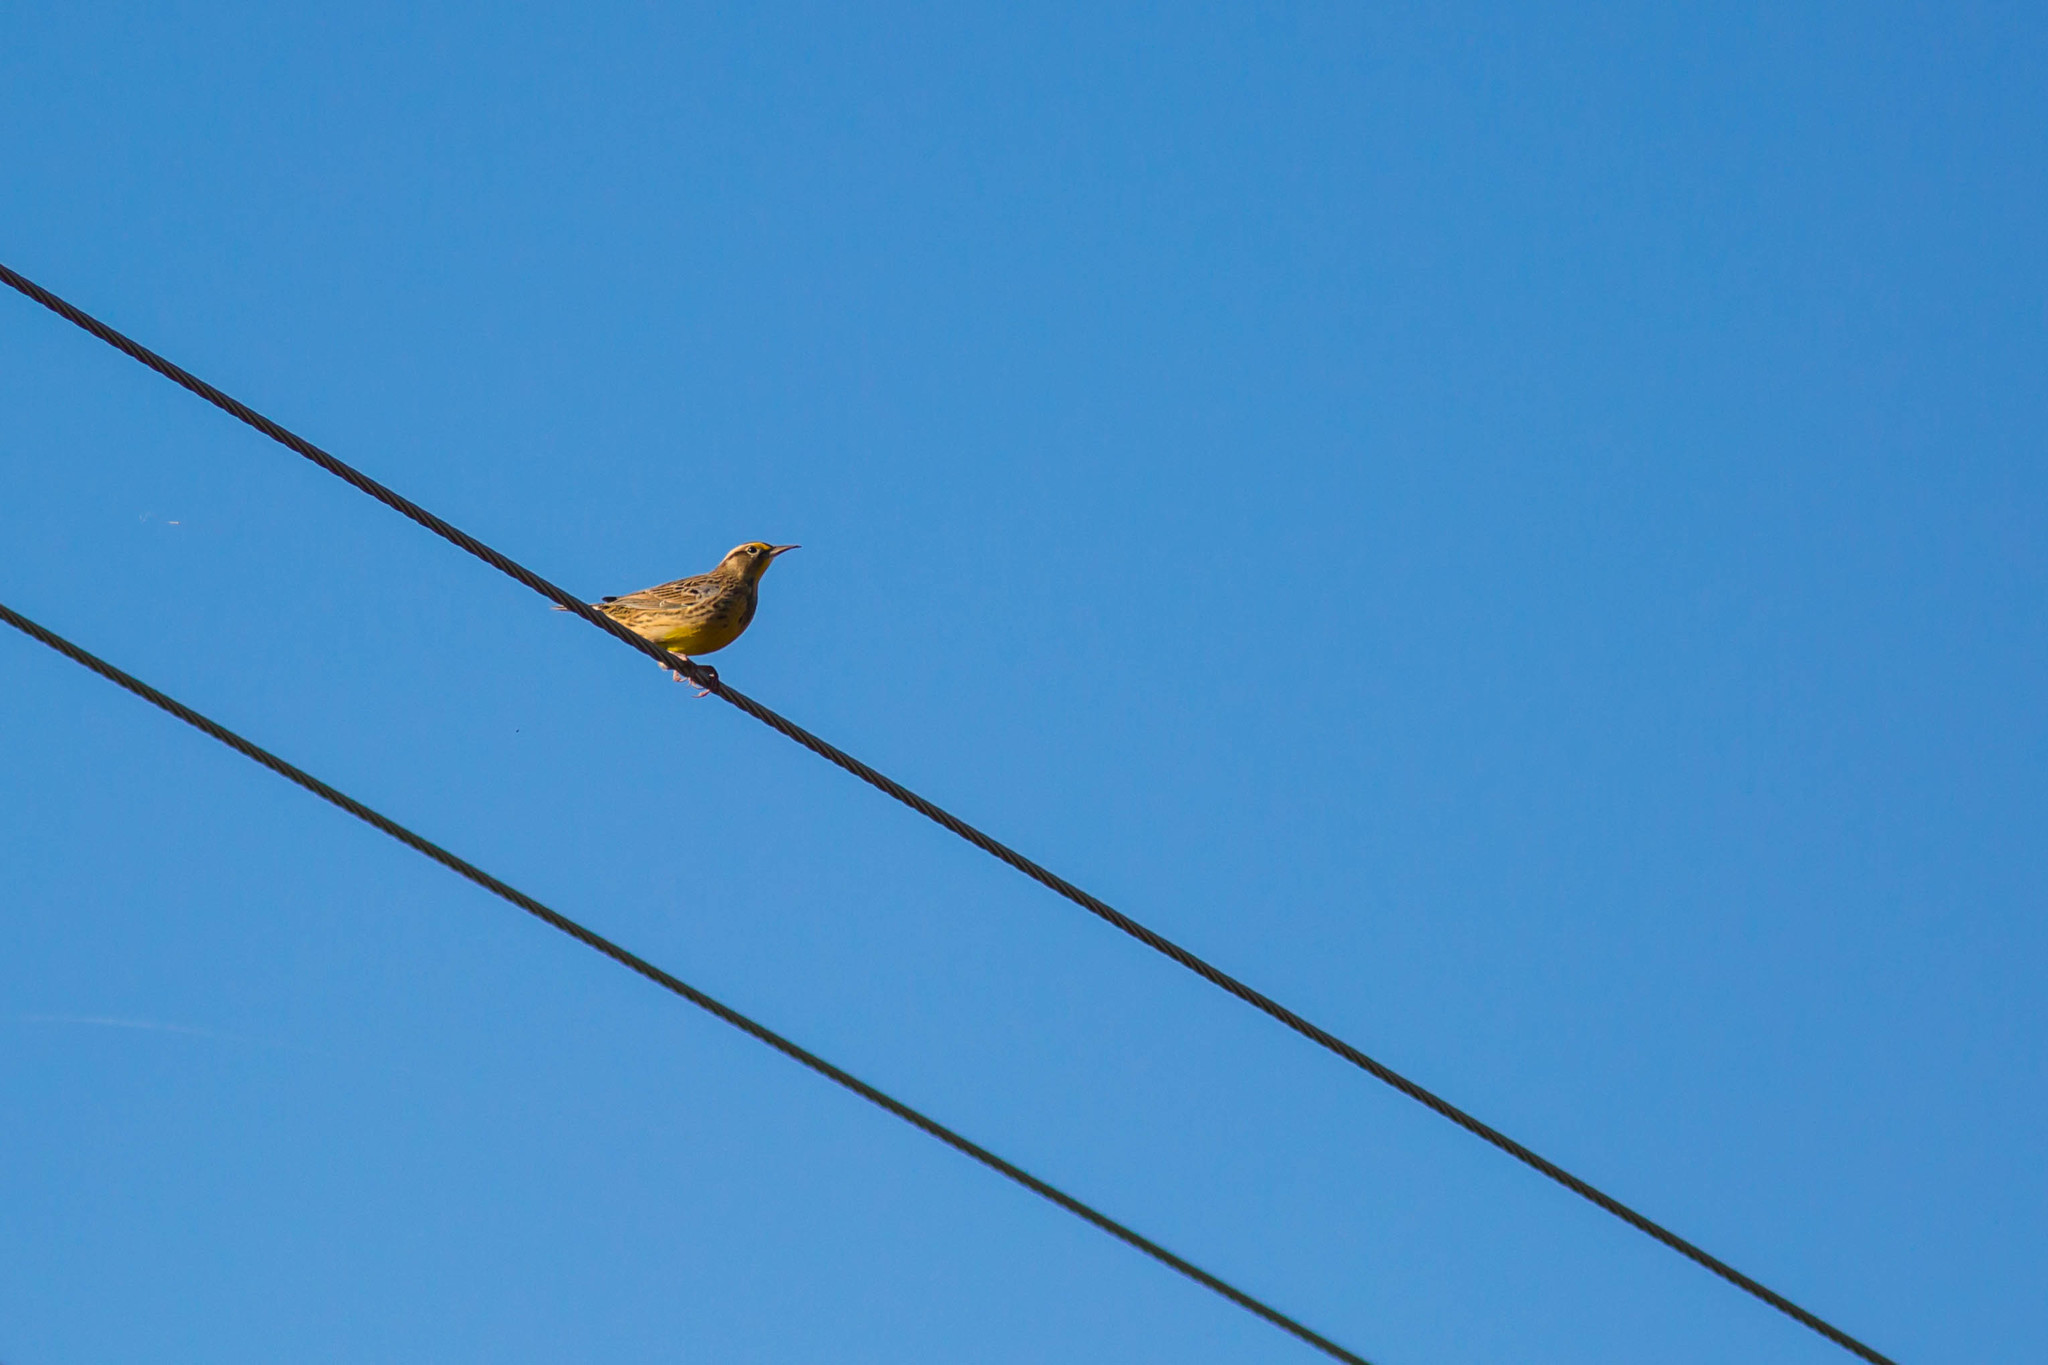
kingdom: Animalia
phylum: Chordata
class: Aves
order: Passeriformes
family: Icteridae
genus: Sturnella
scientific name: Sturnella magna
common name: Eastern meadowlark
